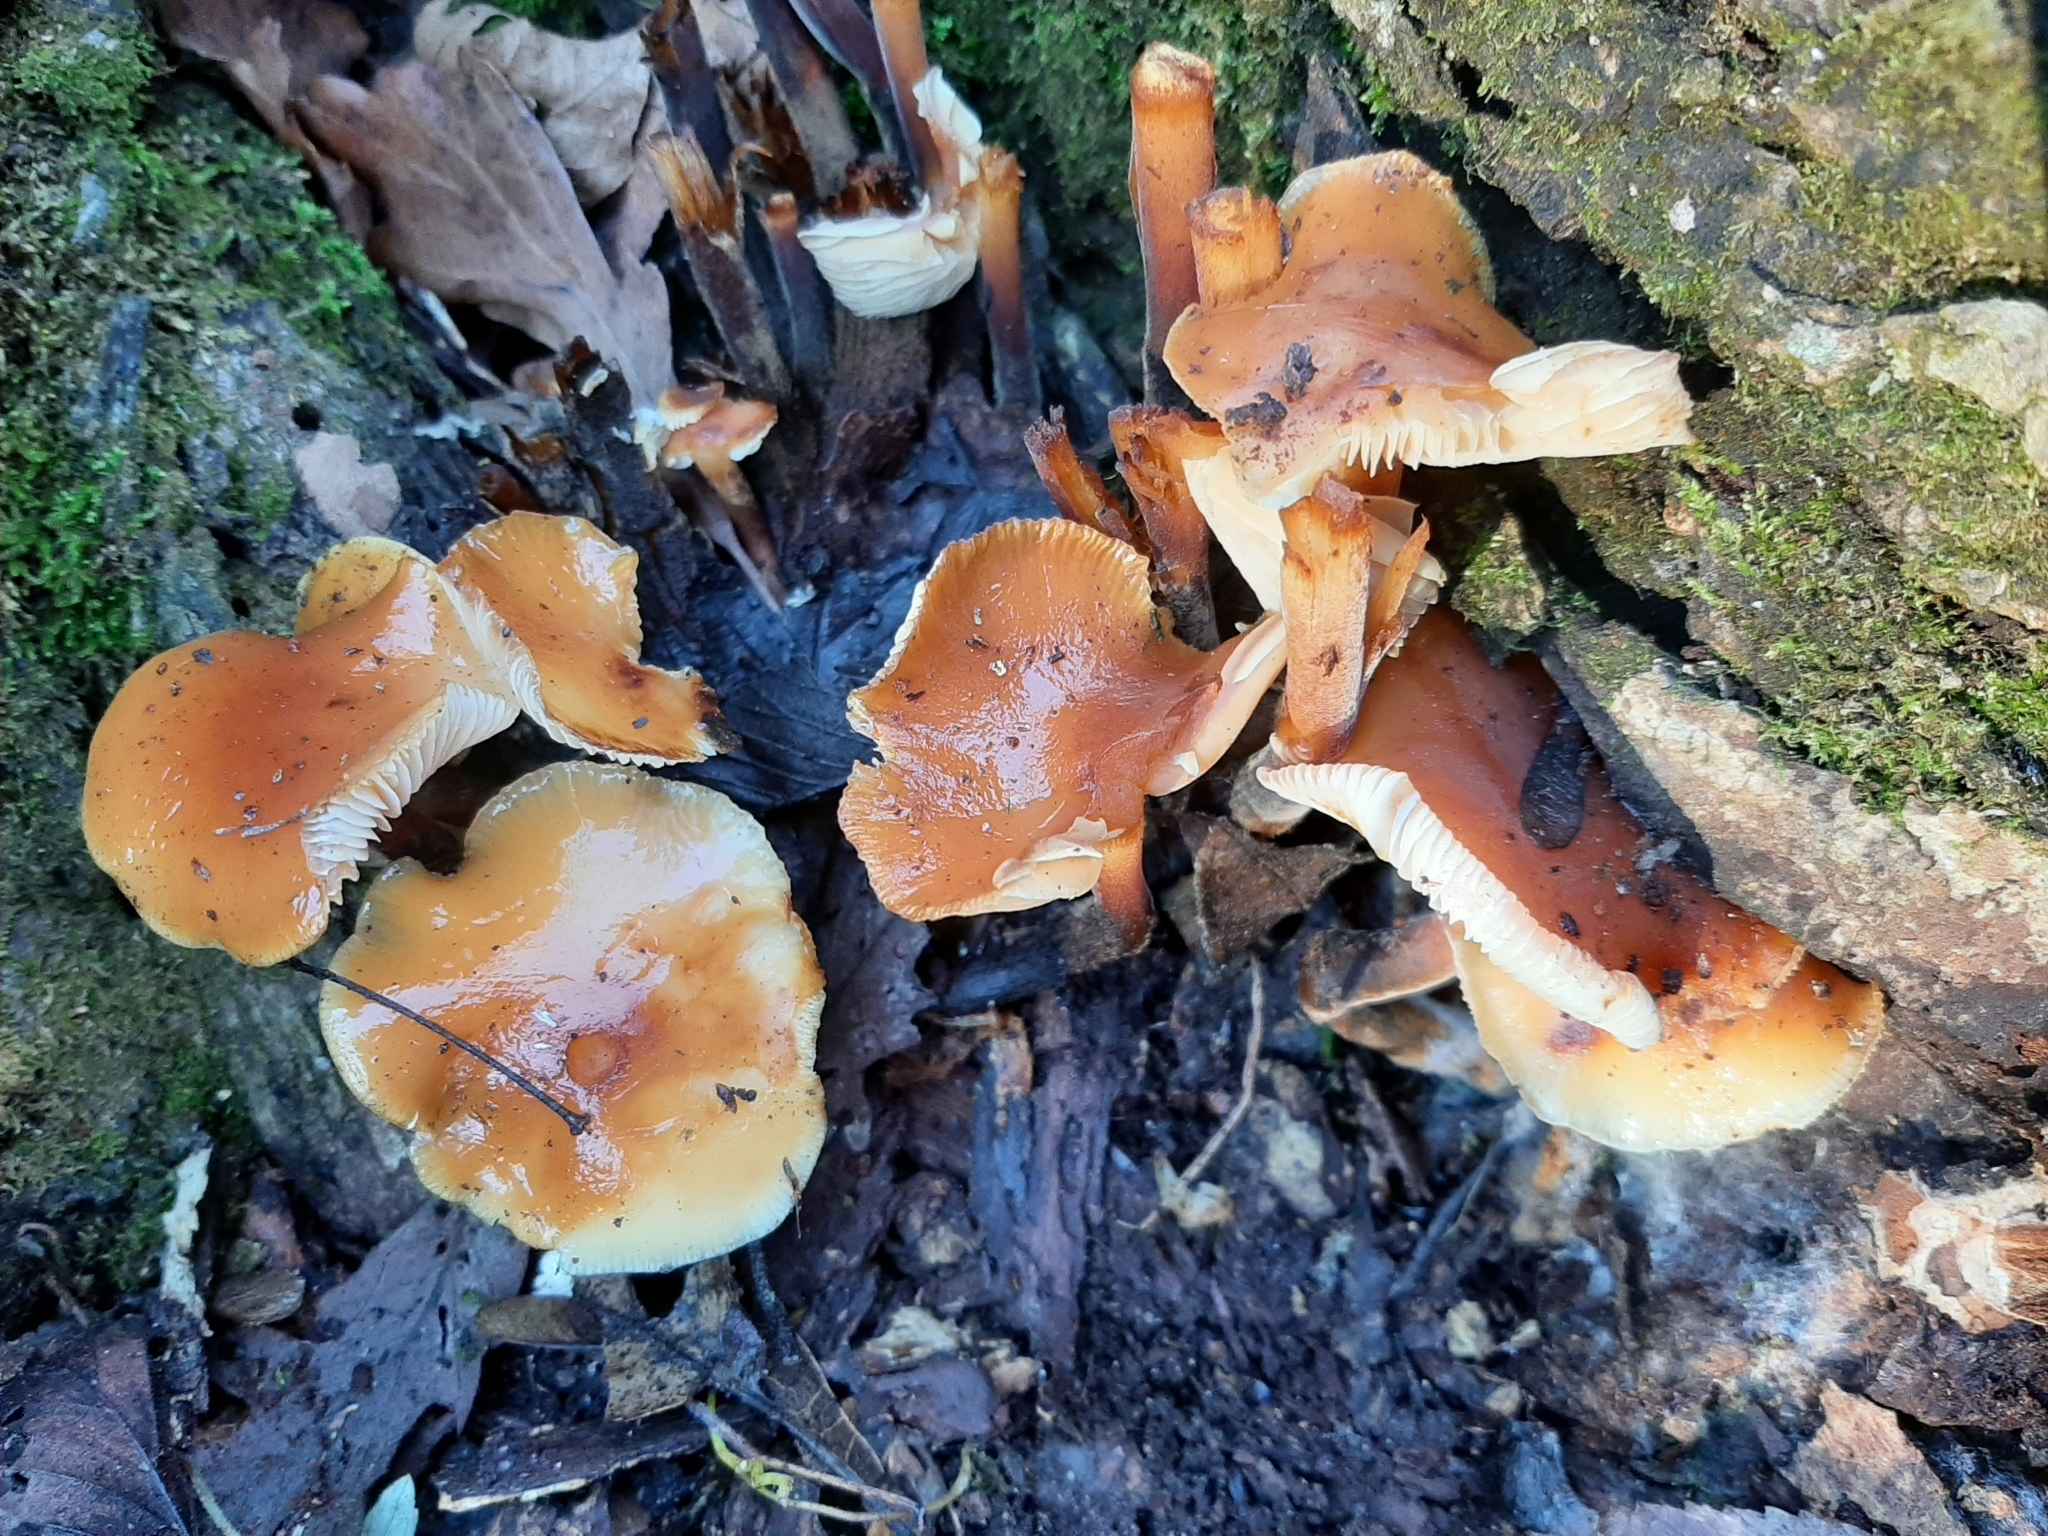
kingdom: Fungi
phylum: Basidiomycota
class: Agaricomycetes
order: Agaricales
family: Physalacriaceae
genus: Flammulina
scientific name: Flammulina velutipes
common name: Velvet shank
